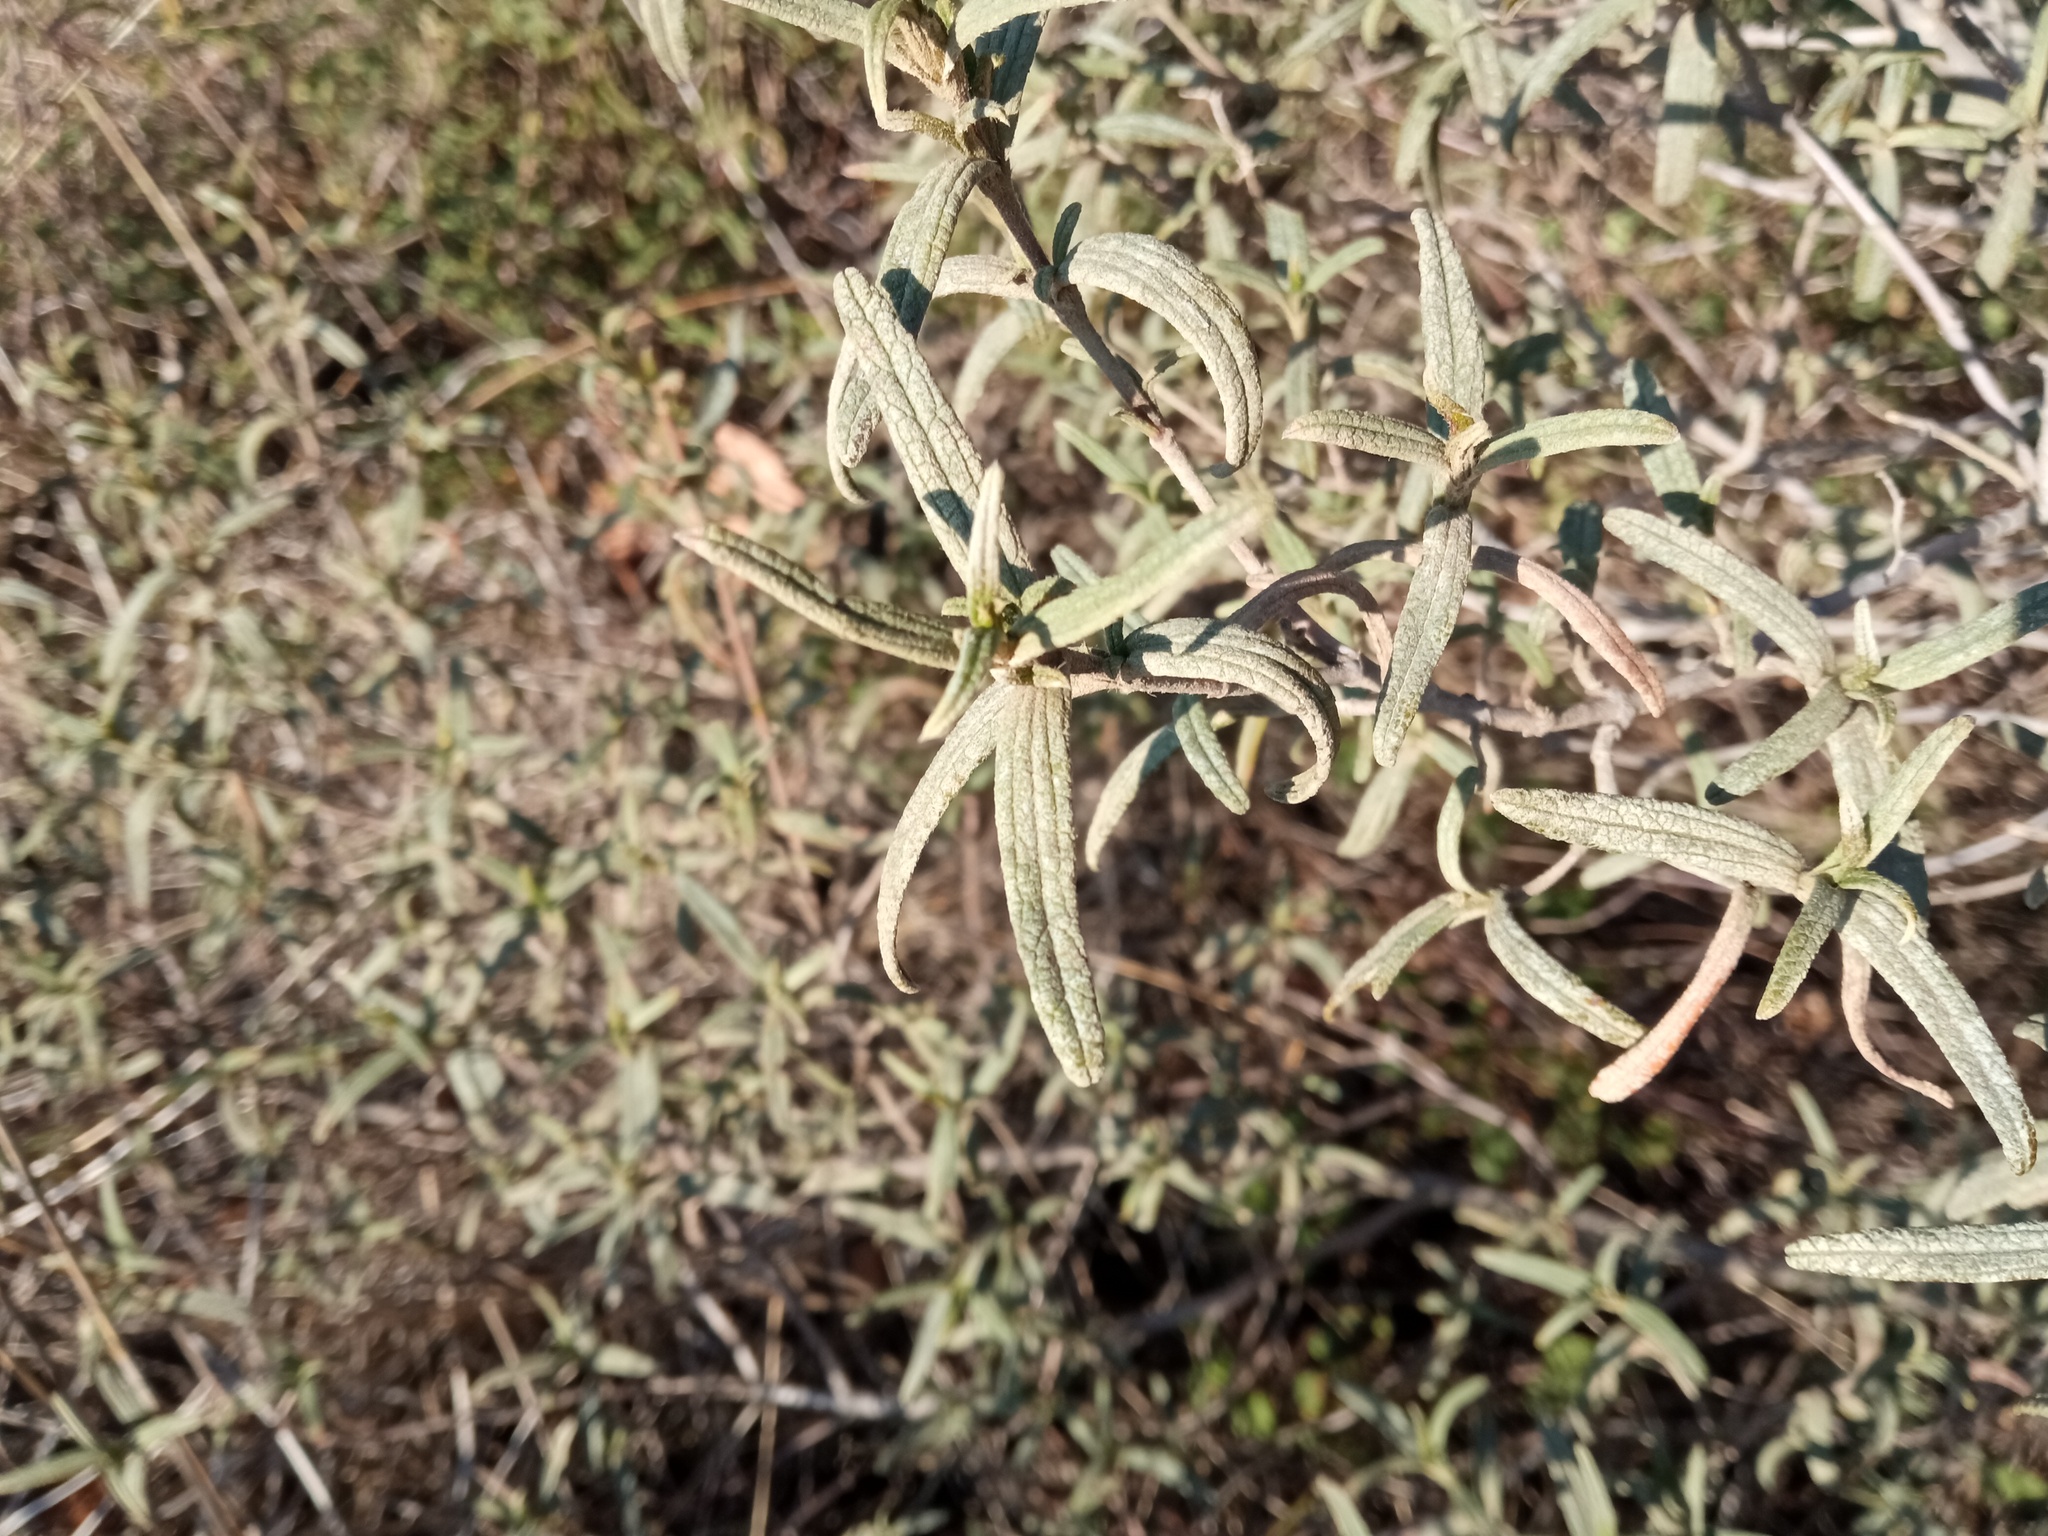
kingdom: Plantae
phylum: Tracheophyta
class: Magnoliopsida
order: Malvales
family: Cistaceae
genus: Cistus
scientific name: Cistus monspeliensis
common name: Montpelier cistus
